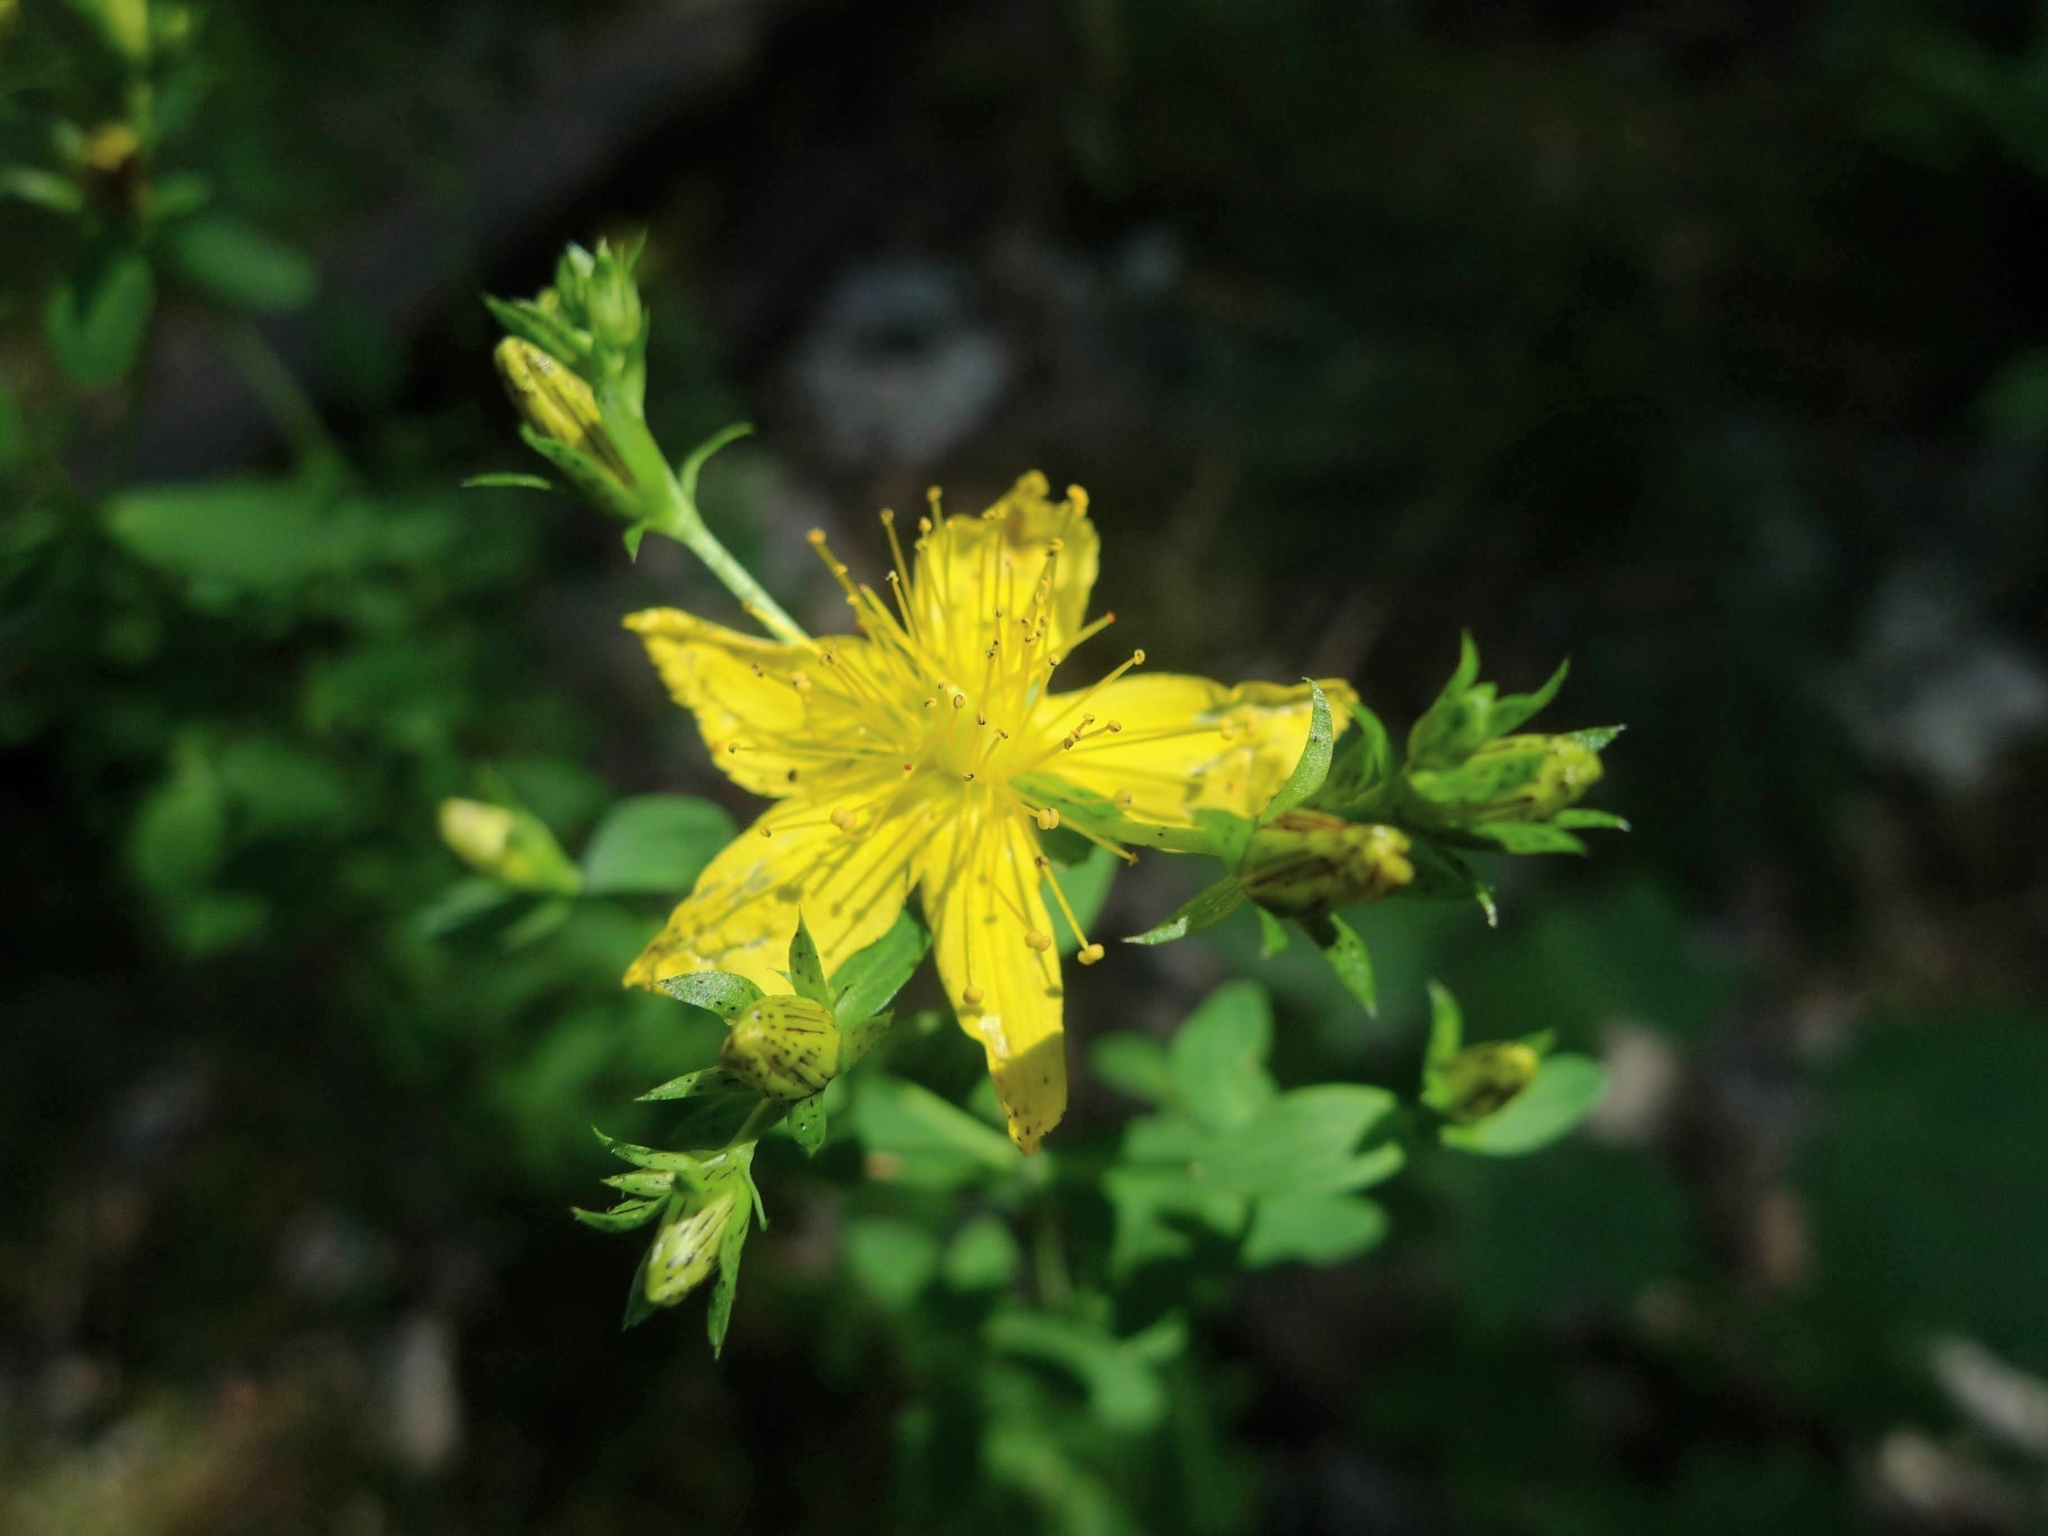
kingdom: Plantae
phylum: Tracheophyta
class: Magnoliopsida
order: Malpighiales
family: Hypericaceae
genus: Hypericum
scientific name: Hypericum perforatum
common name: Common st. johnswort
